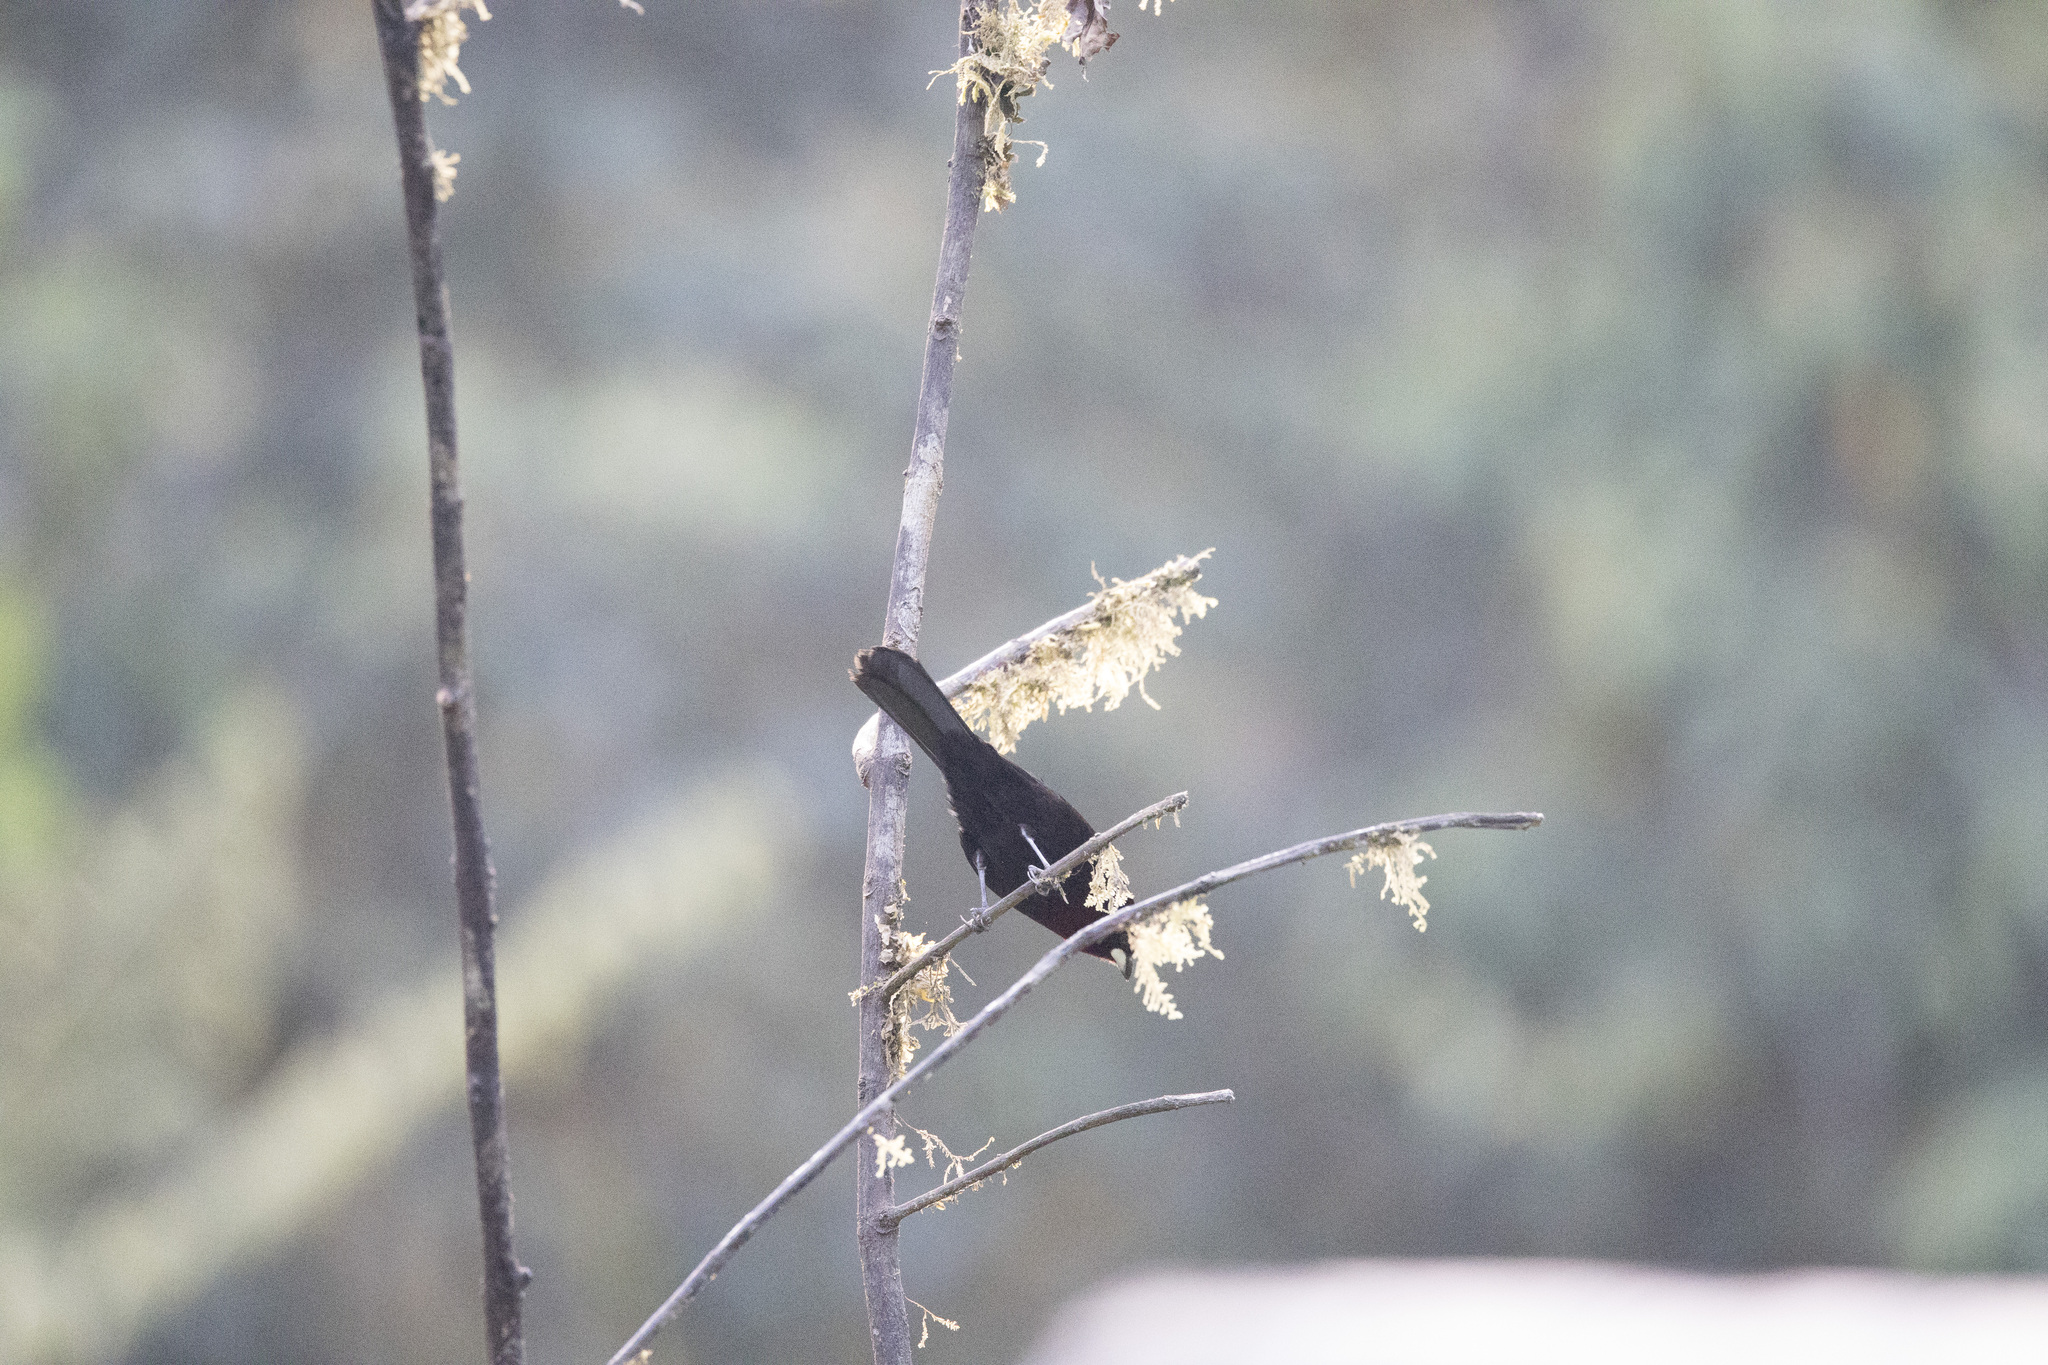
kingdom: Animalia
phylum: Chordata
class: Aves
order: Passeriformes
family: Thraupidae
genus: Ramphocelus
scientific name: Ramphocelus carbo
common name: Silver-beaked tanager
